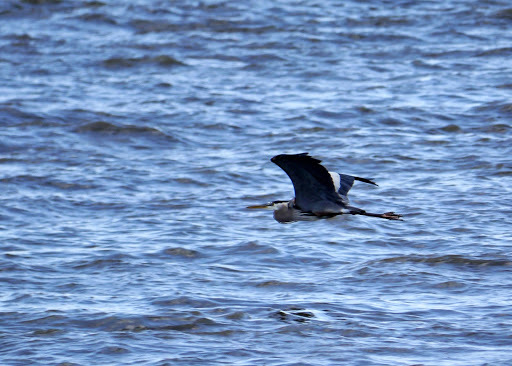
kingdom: Animalia
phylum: Chordata
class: Aves
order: Pelecaniformes
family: Ardeidae
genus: Ardea
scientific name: Ardea herodias
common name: Great blue heron
